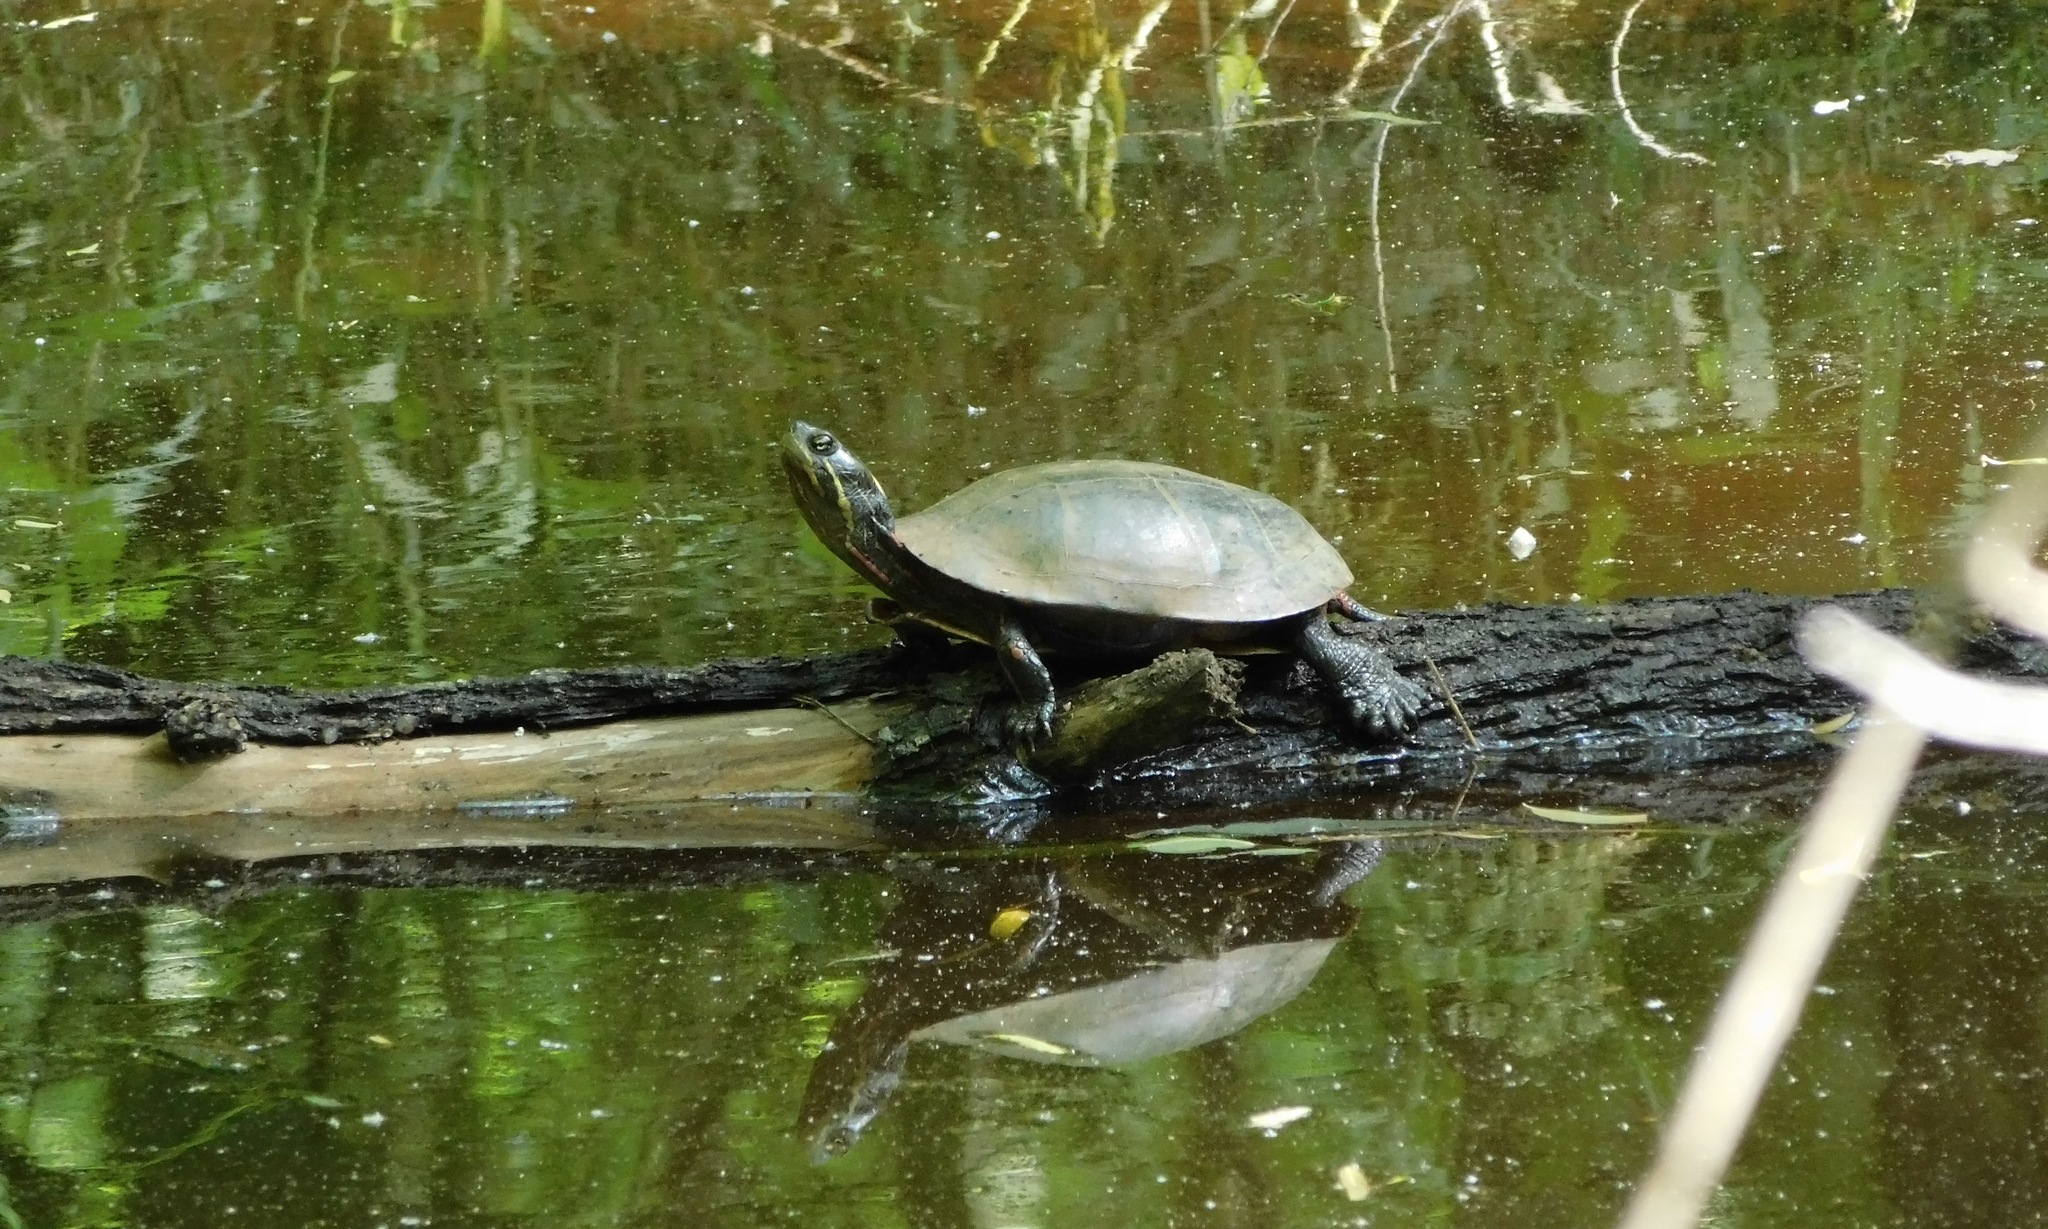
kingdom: Animalia
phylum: Chordata
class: Testudines
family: Emydidae
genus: Chrysemys
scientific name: Chrysemys picta
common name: Painted turtle
